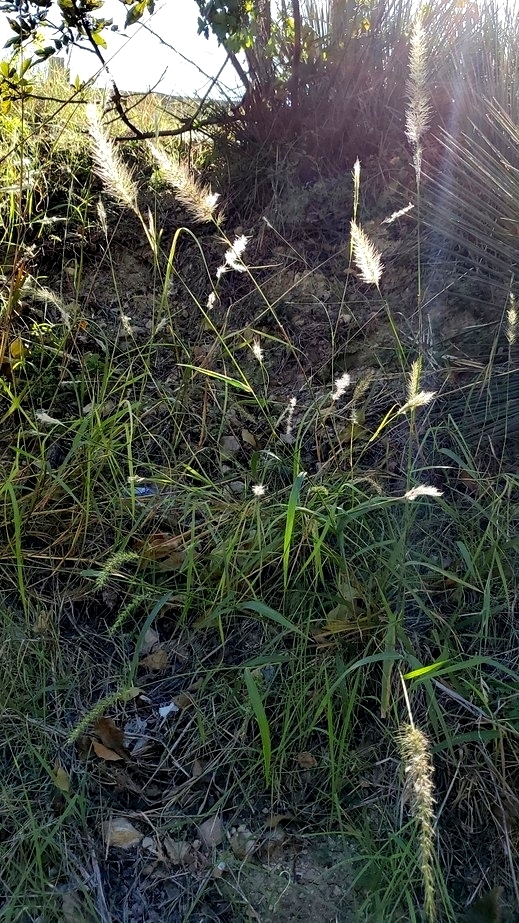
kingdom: Plantae
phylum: Tracheophyta
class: Liliopsida
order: Poales
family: Poaceae
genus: Setaria
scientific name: Setaria scheelei
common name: Southwestern bristle grass
